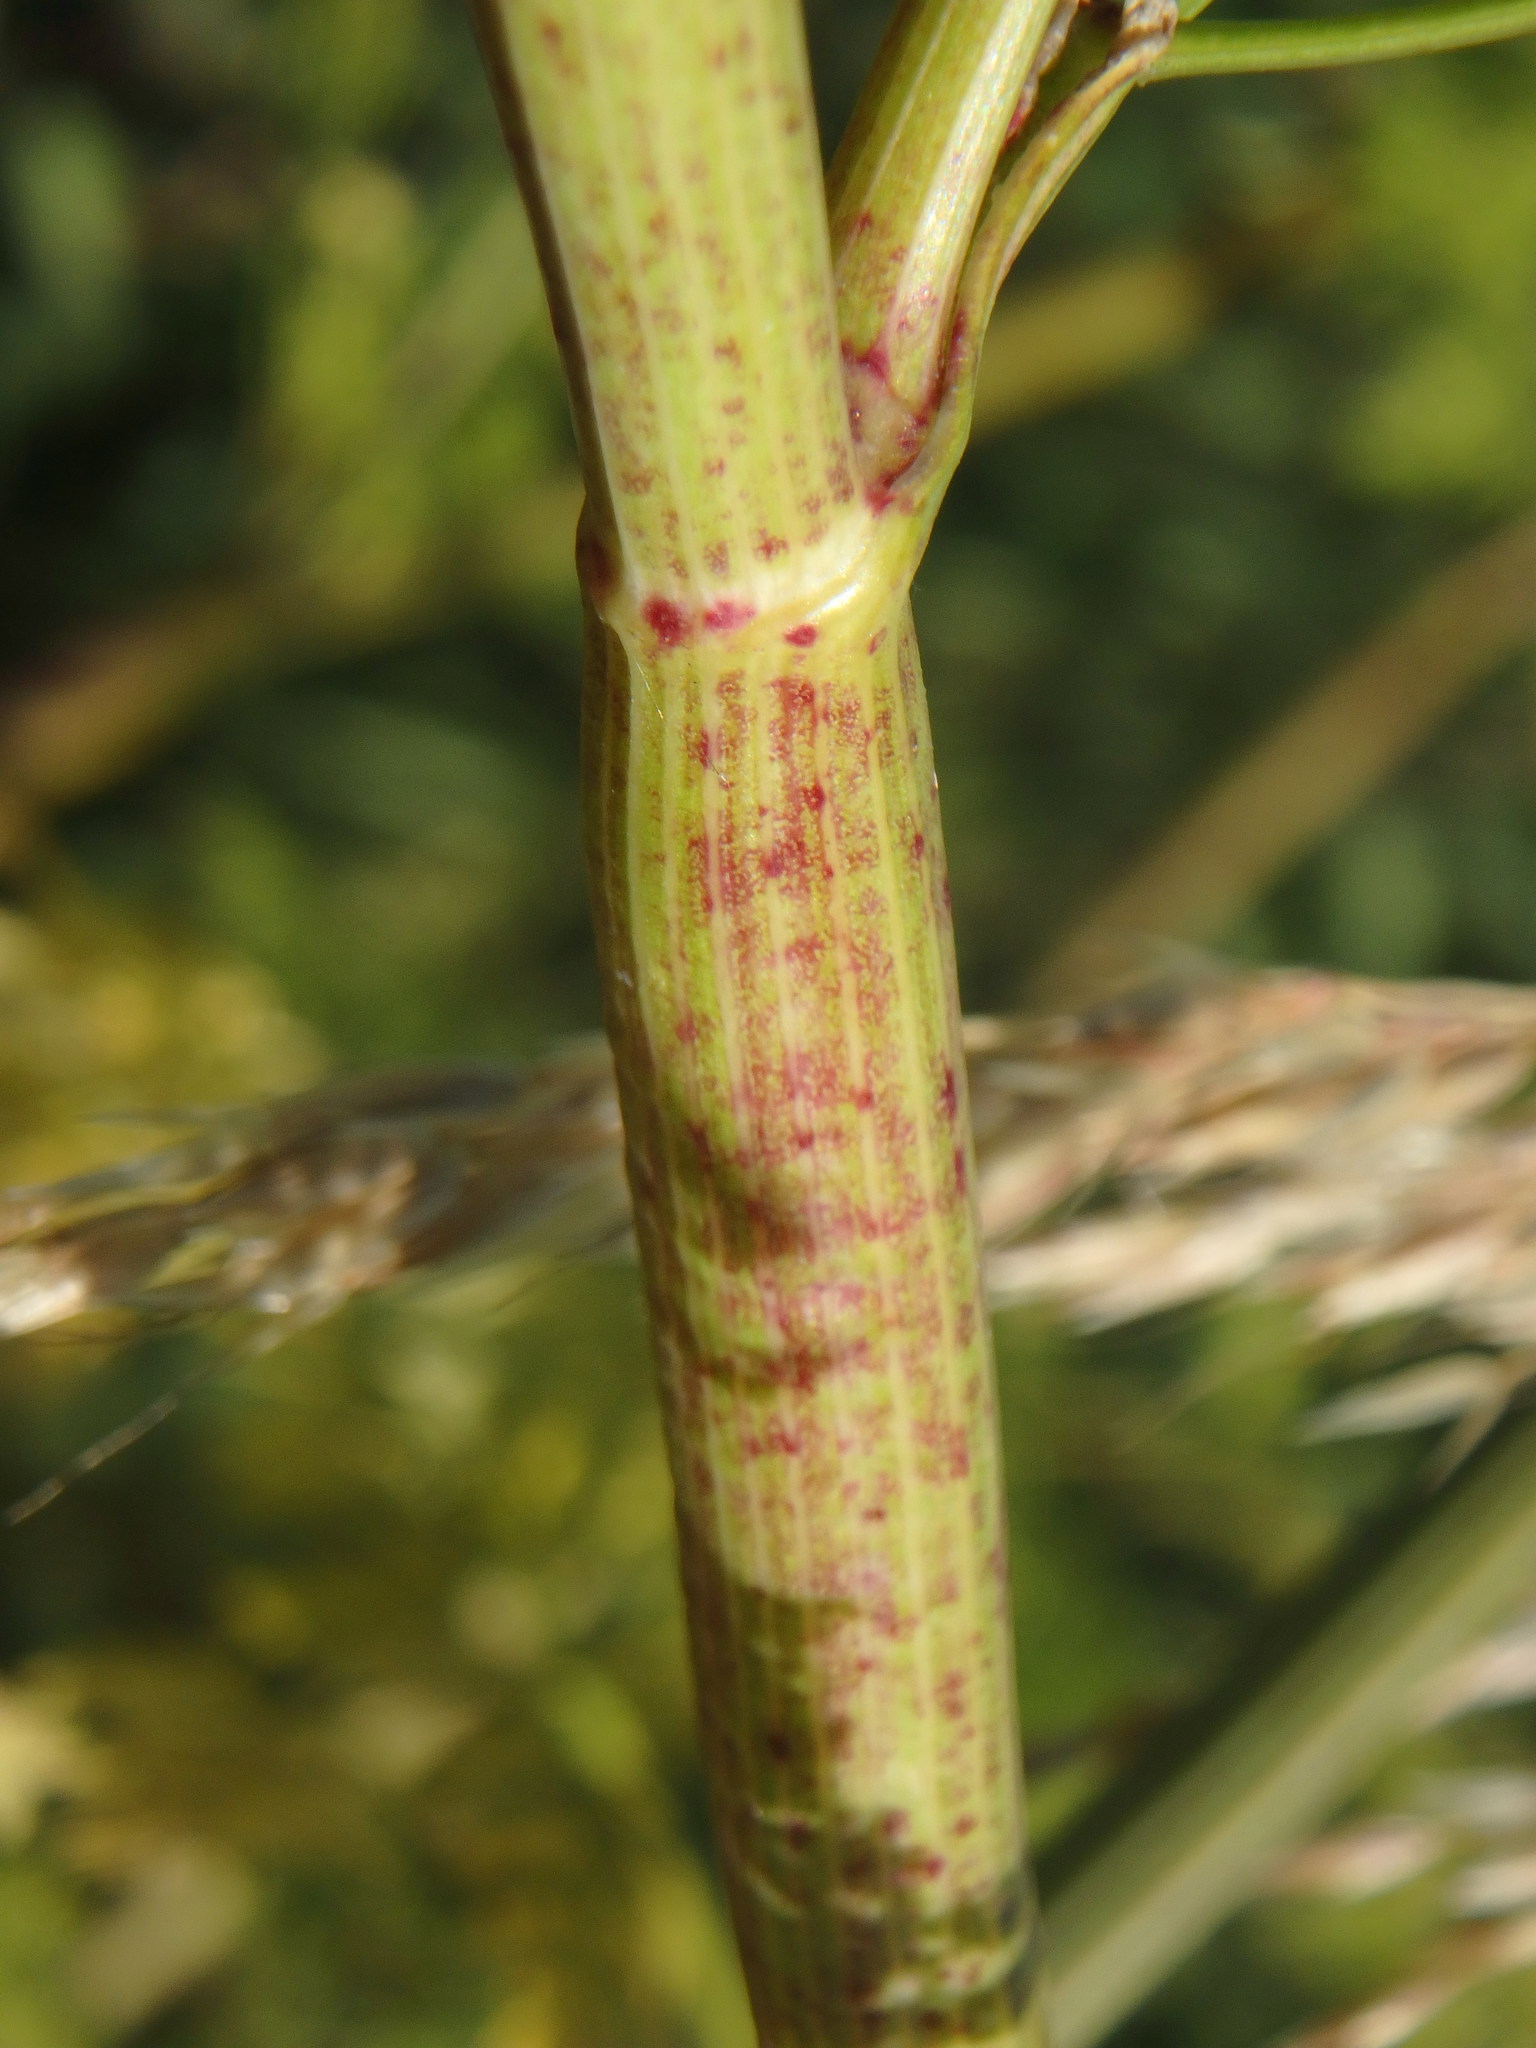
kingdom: Plantae
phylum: Tracheophyta
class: Magnoliopsida
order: Apiales
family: Apiaceae
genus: Conium
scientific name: Conium maculatum
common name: Hemlock
